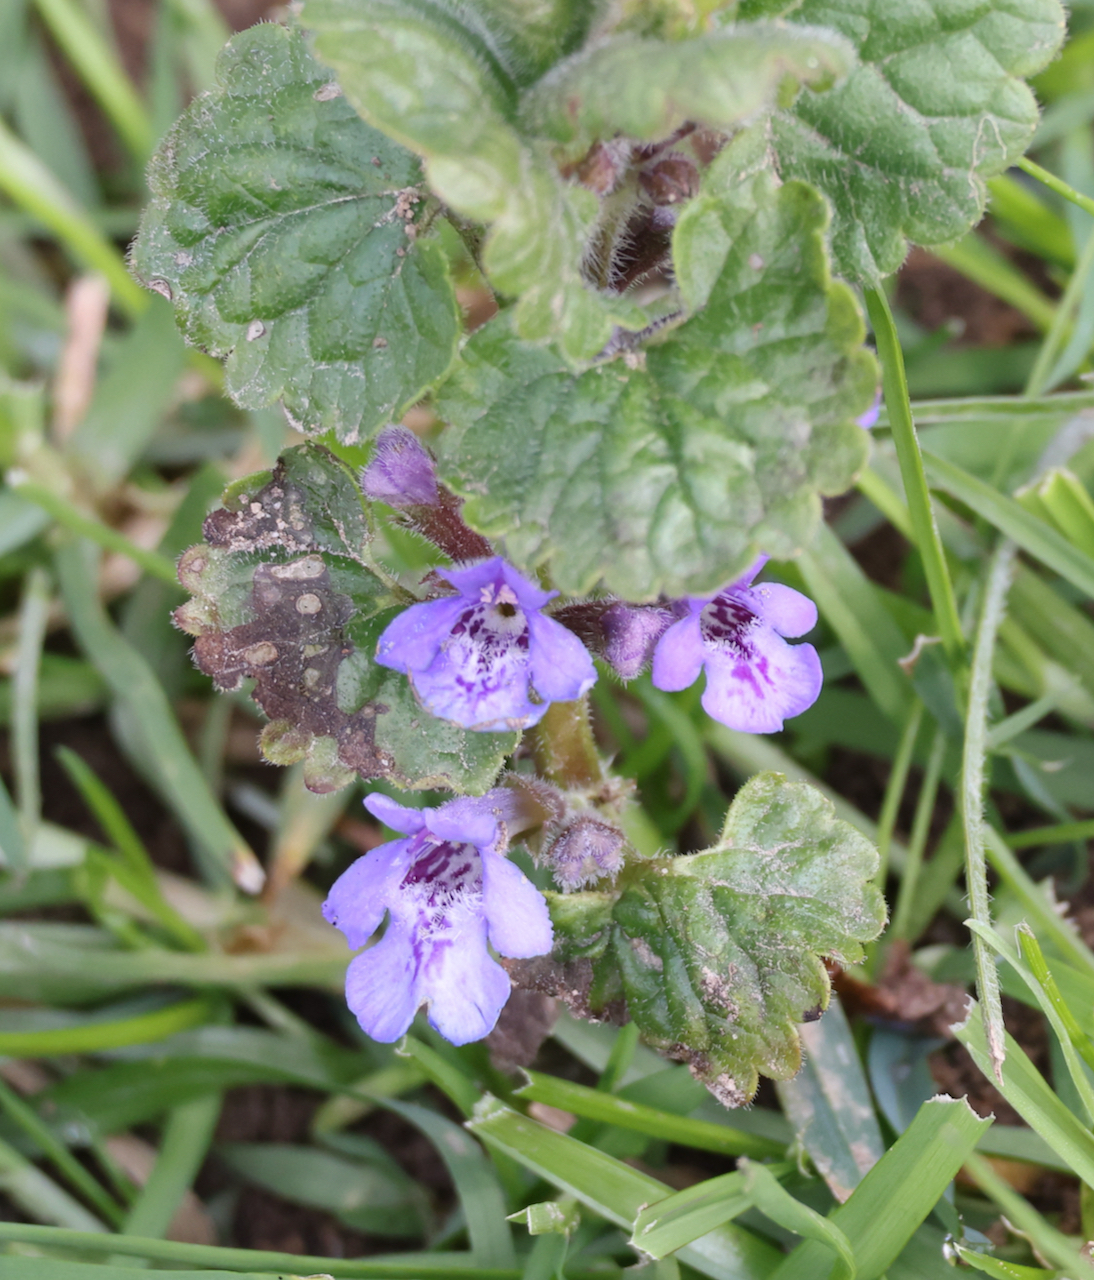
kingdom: Plantae
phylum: Tracheophyta
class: Magnoliopsida
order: Lamiales
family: Lamiaceae
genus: Glechoma
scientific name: Glechoma hederacea
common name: Ground ivy
